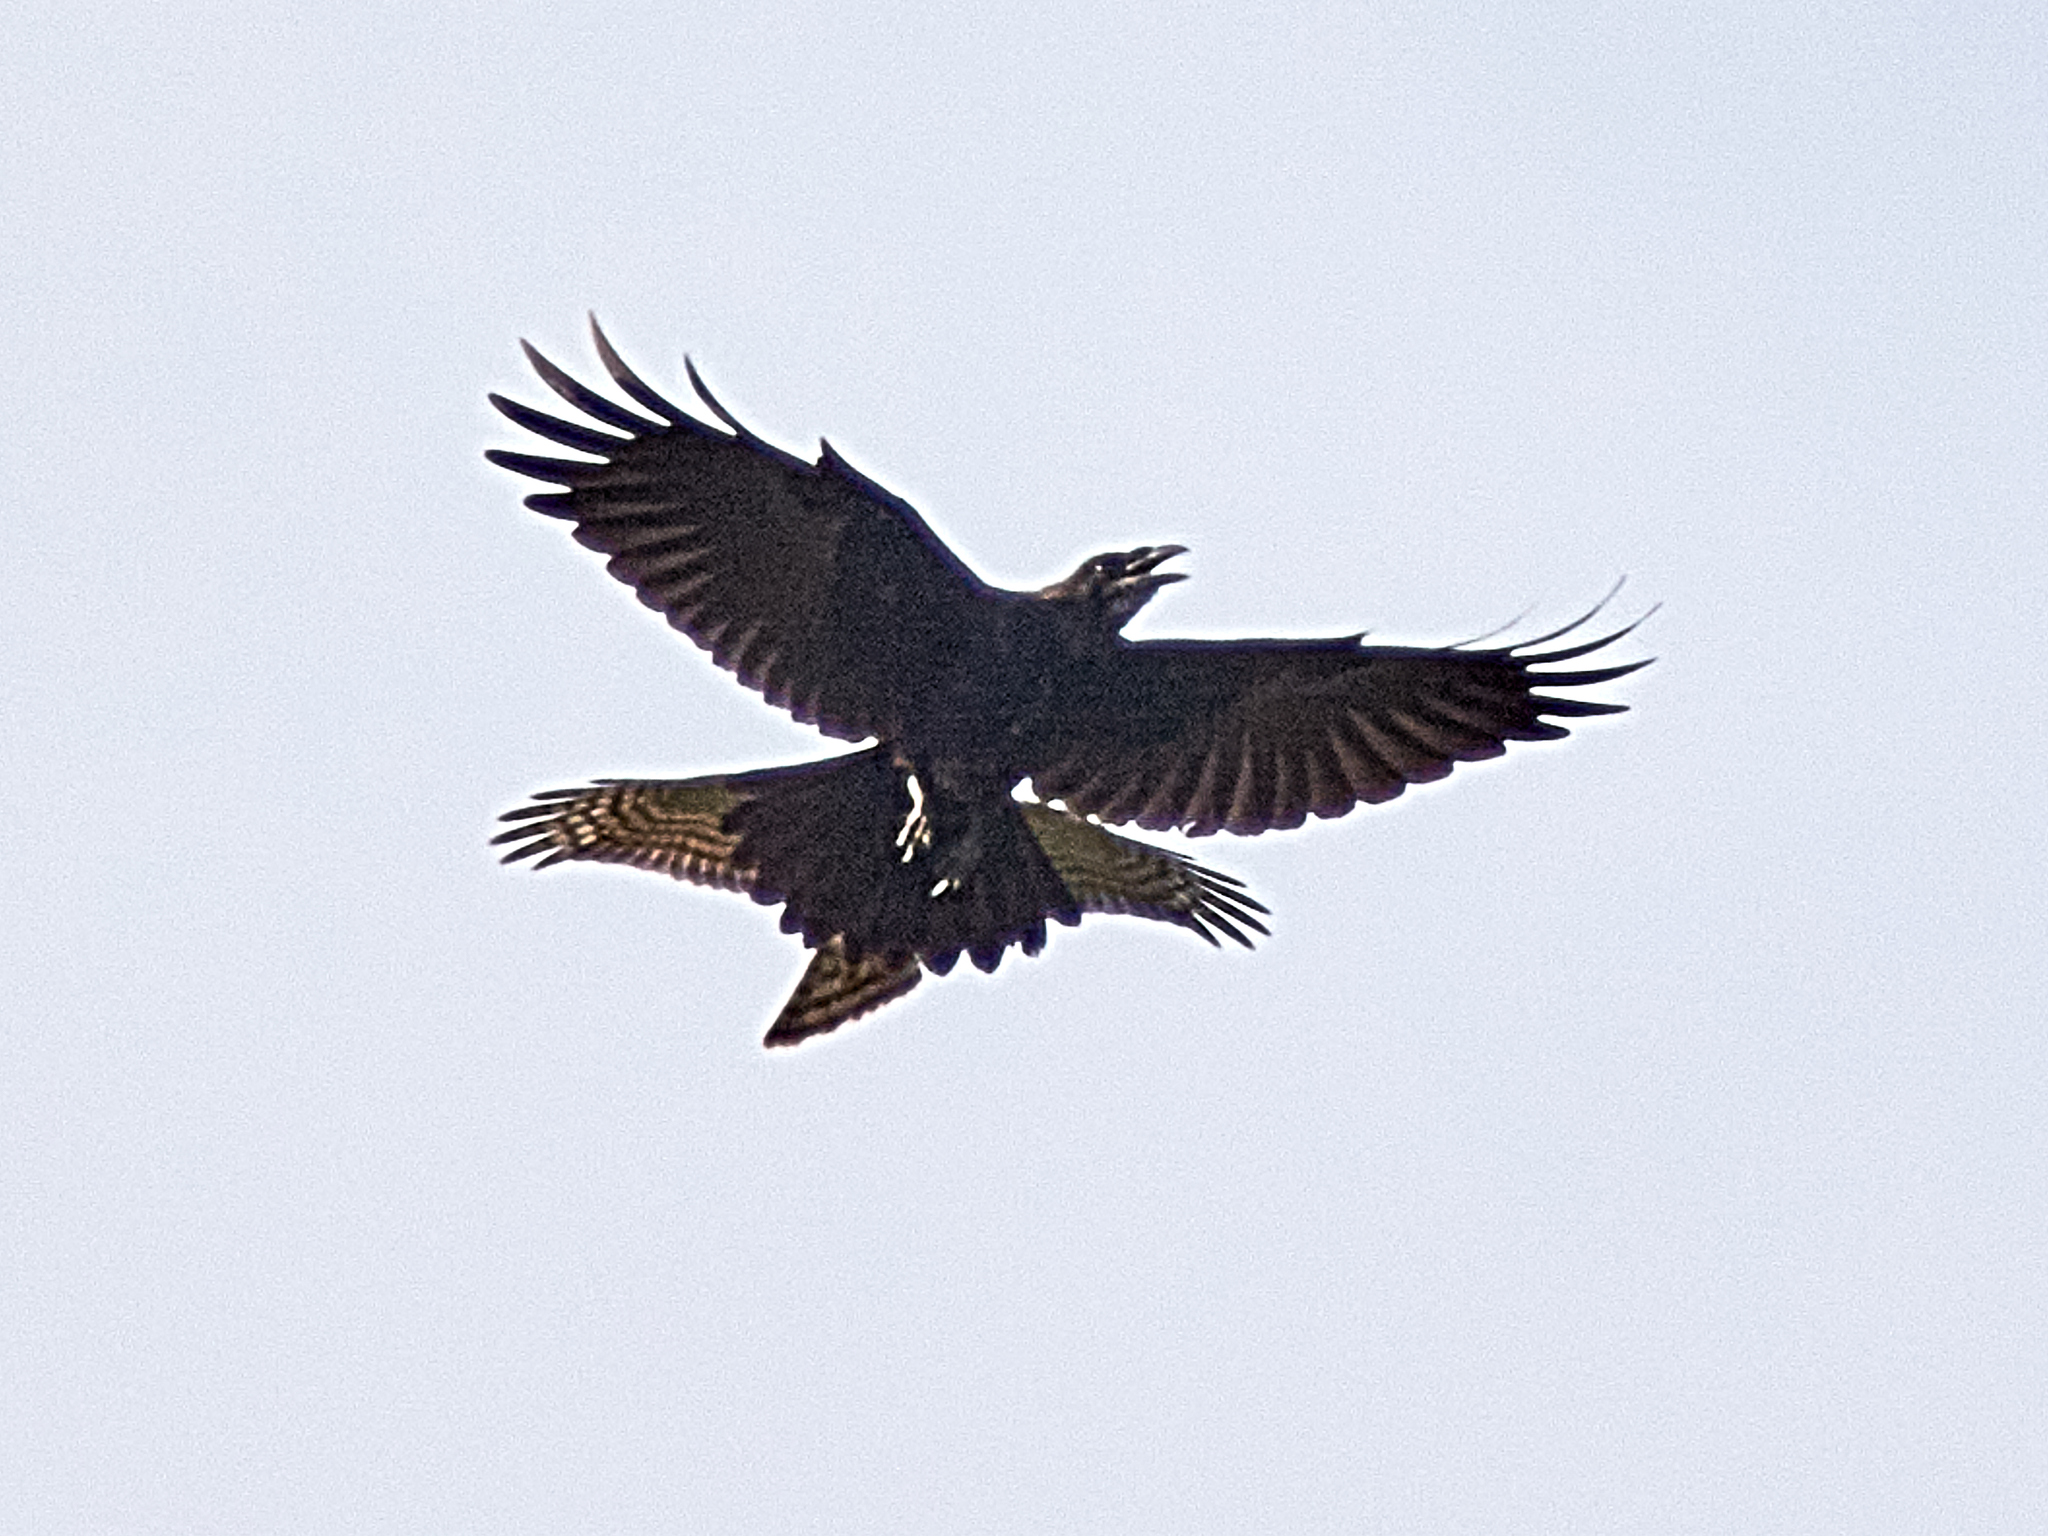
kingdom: Animalia
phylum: Chordata
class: Aves
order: Passeriformes
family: Corvidae
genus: Corvus
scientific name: Corvus corax
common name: Common raven
